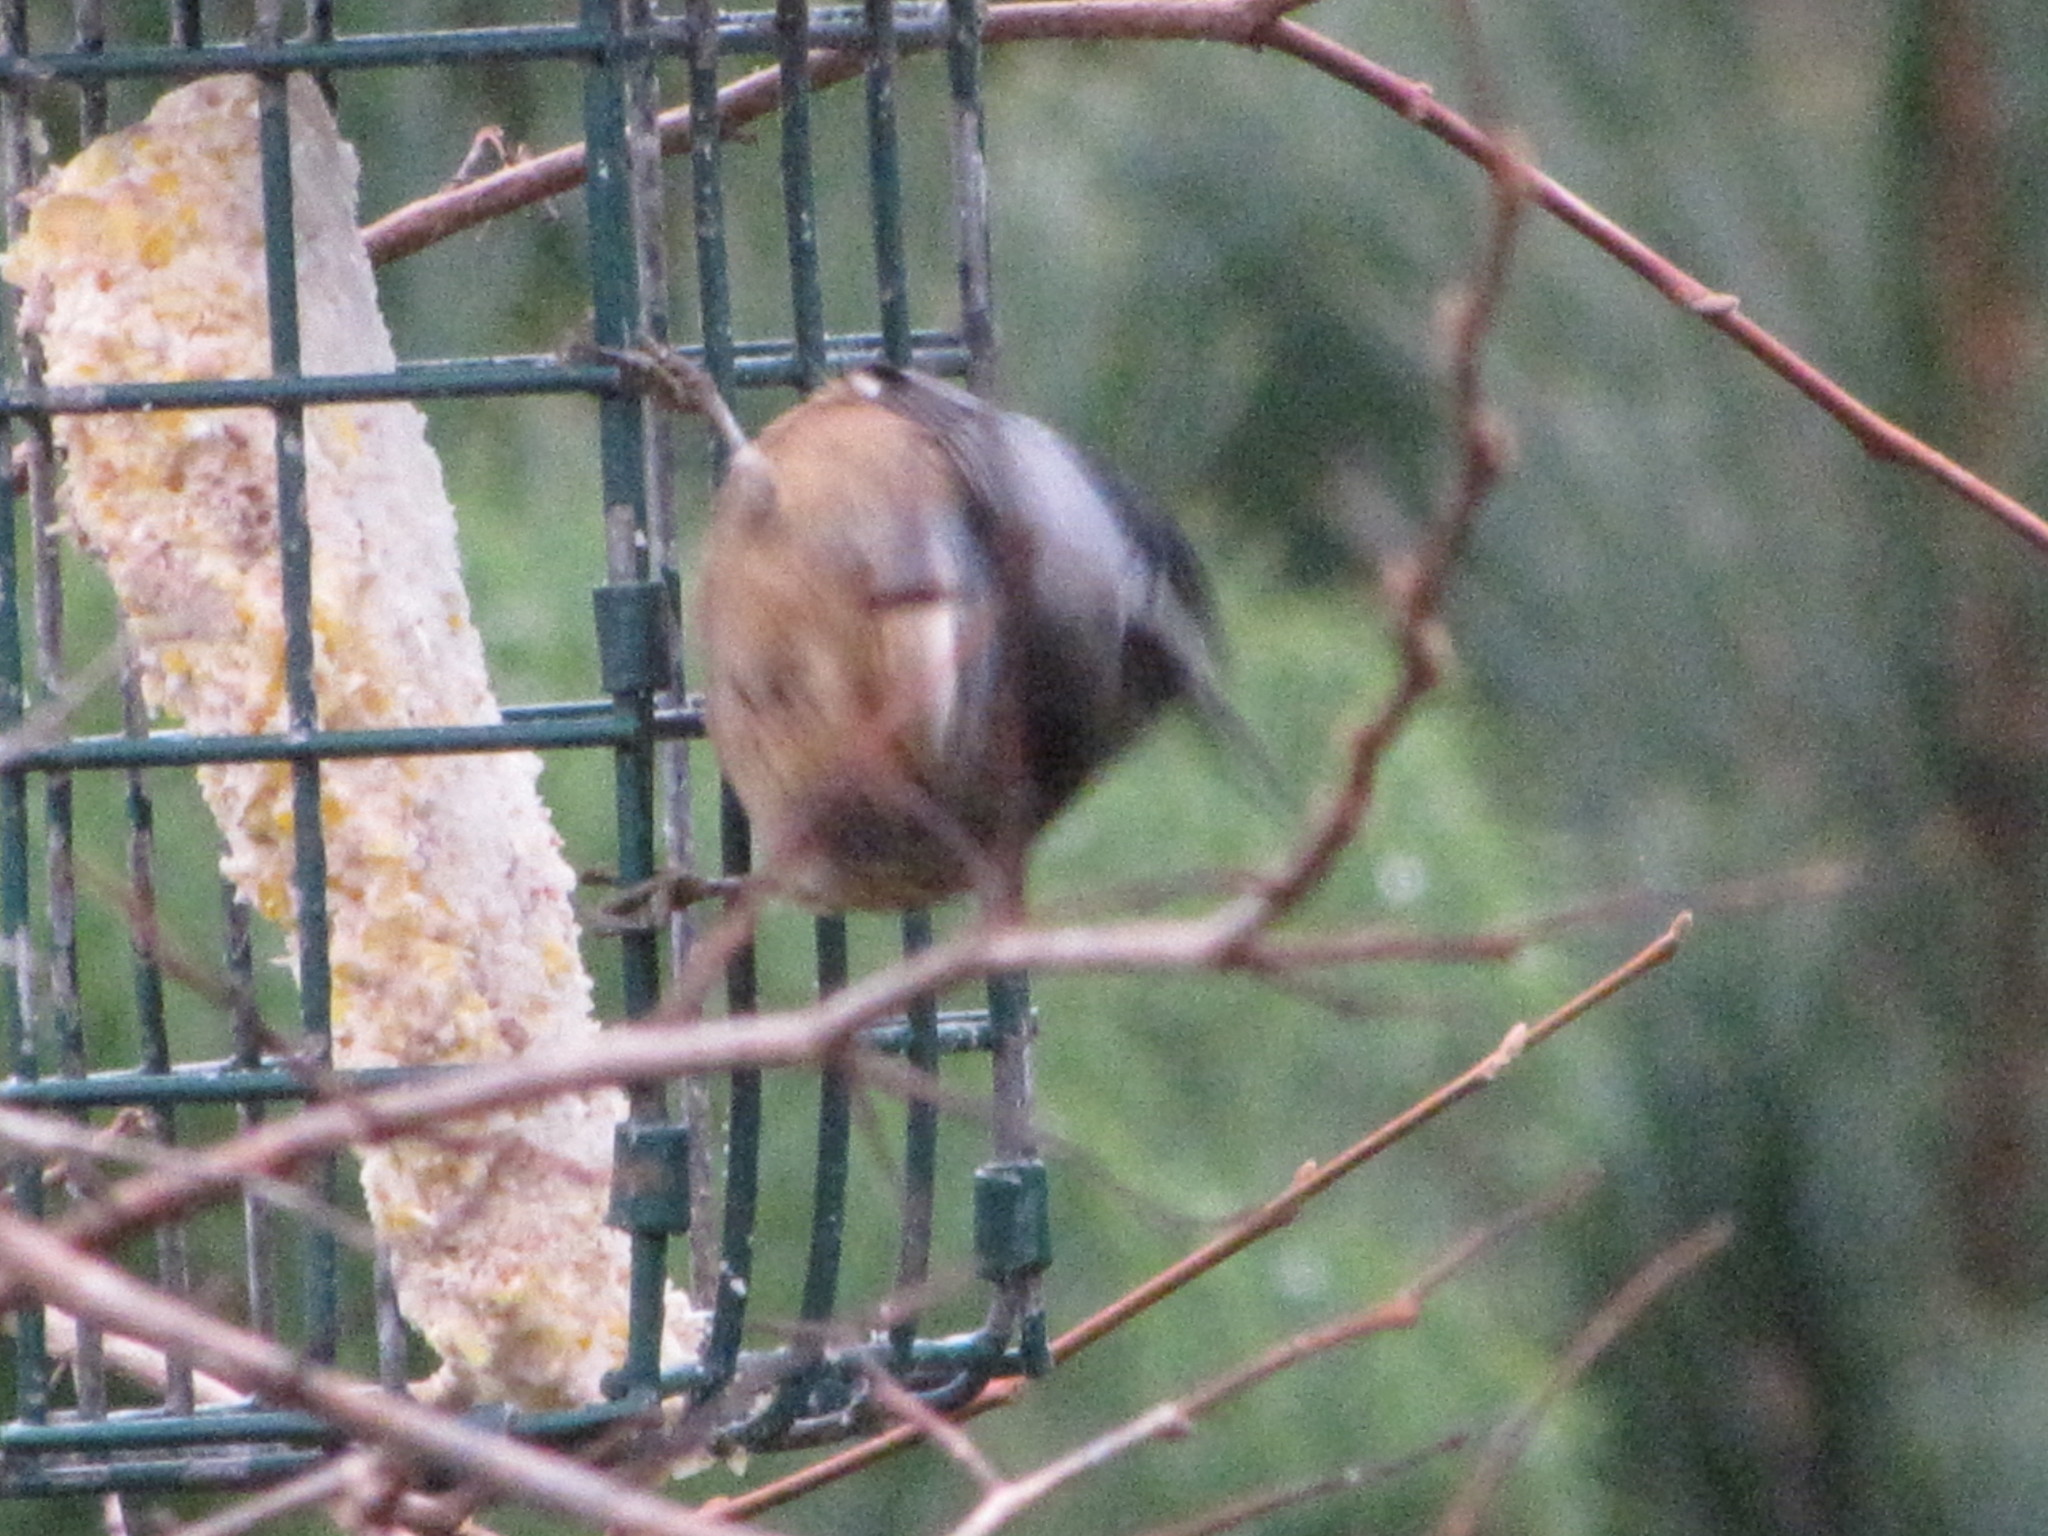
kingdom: Animalia
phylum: Chordata
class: Aves
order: Passeriformes
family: Sittidae
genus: Sitta
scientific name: Sitta canadensis
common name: Red-breasted nuthatch
